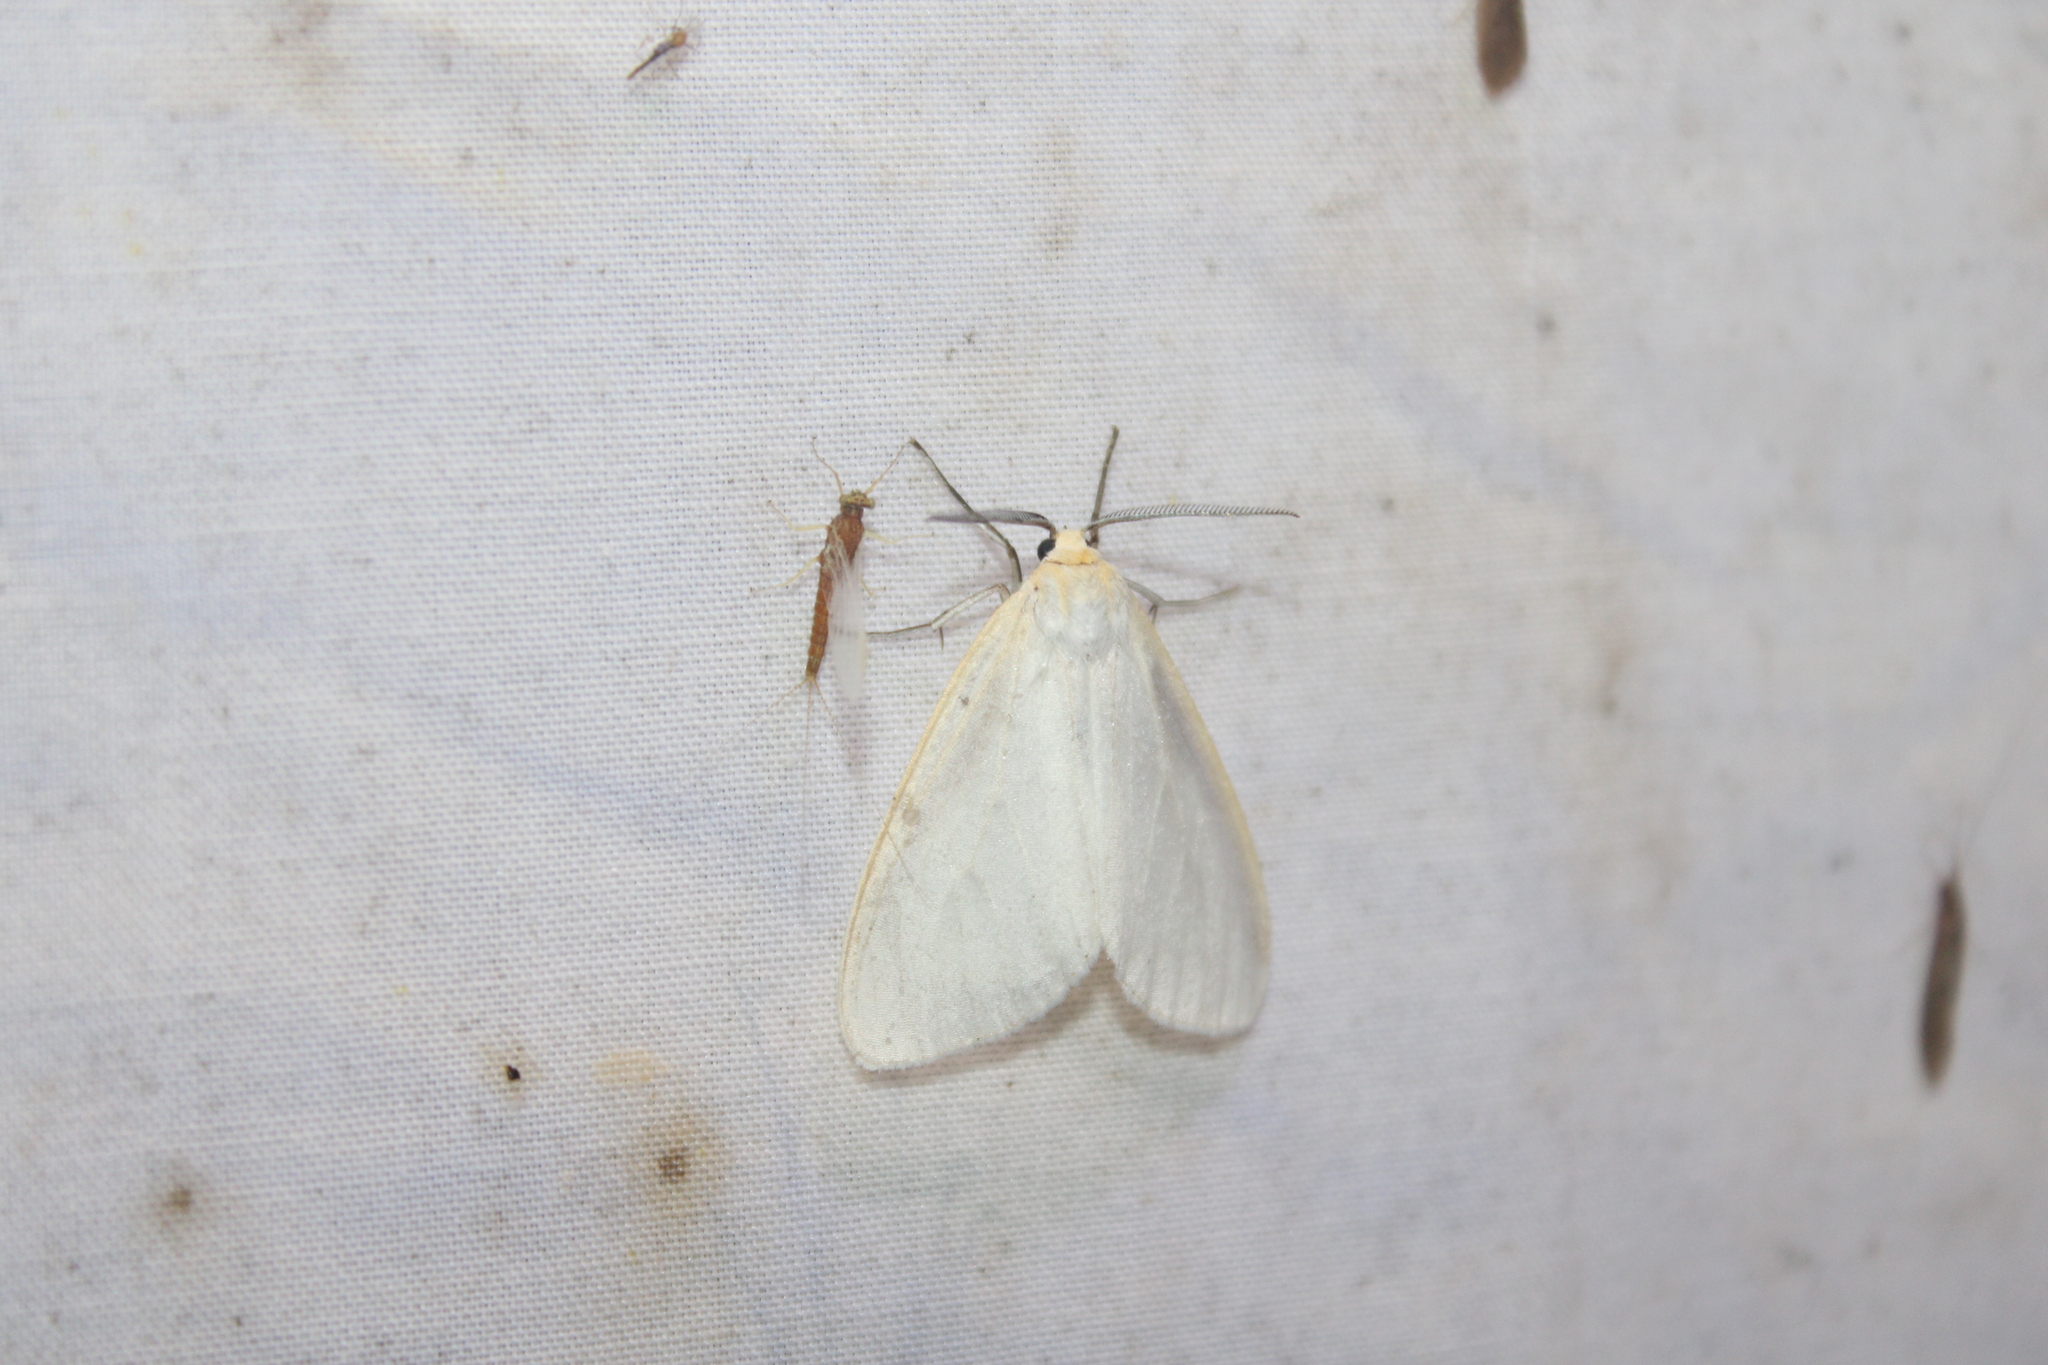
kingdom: Animalia
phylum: Arthropoda
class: Insecta
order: Lepidoptera
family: Erebidae
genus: Cycnia
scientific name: Cycnia tenera
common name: Delicate cycnia moth
